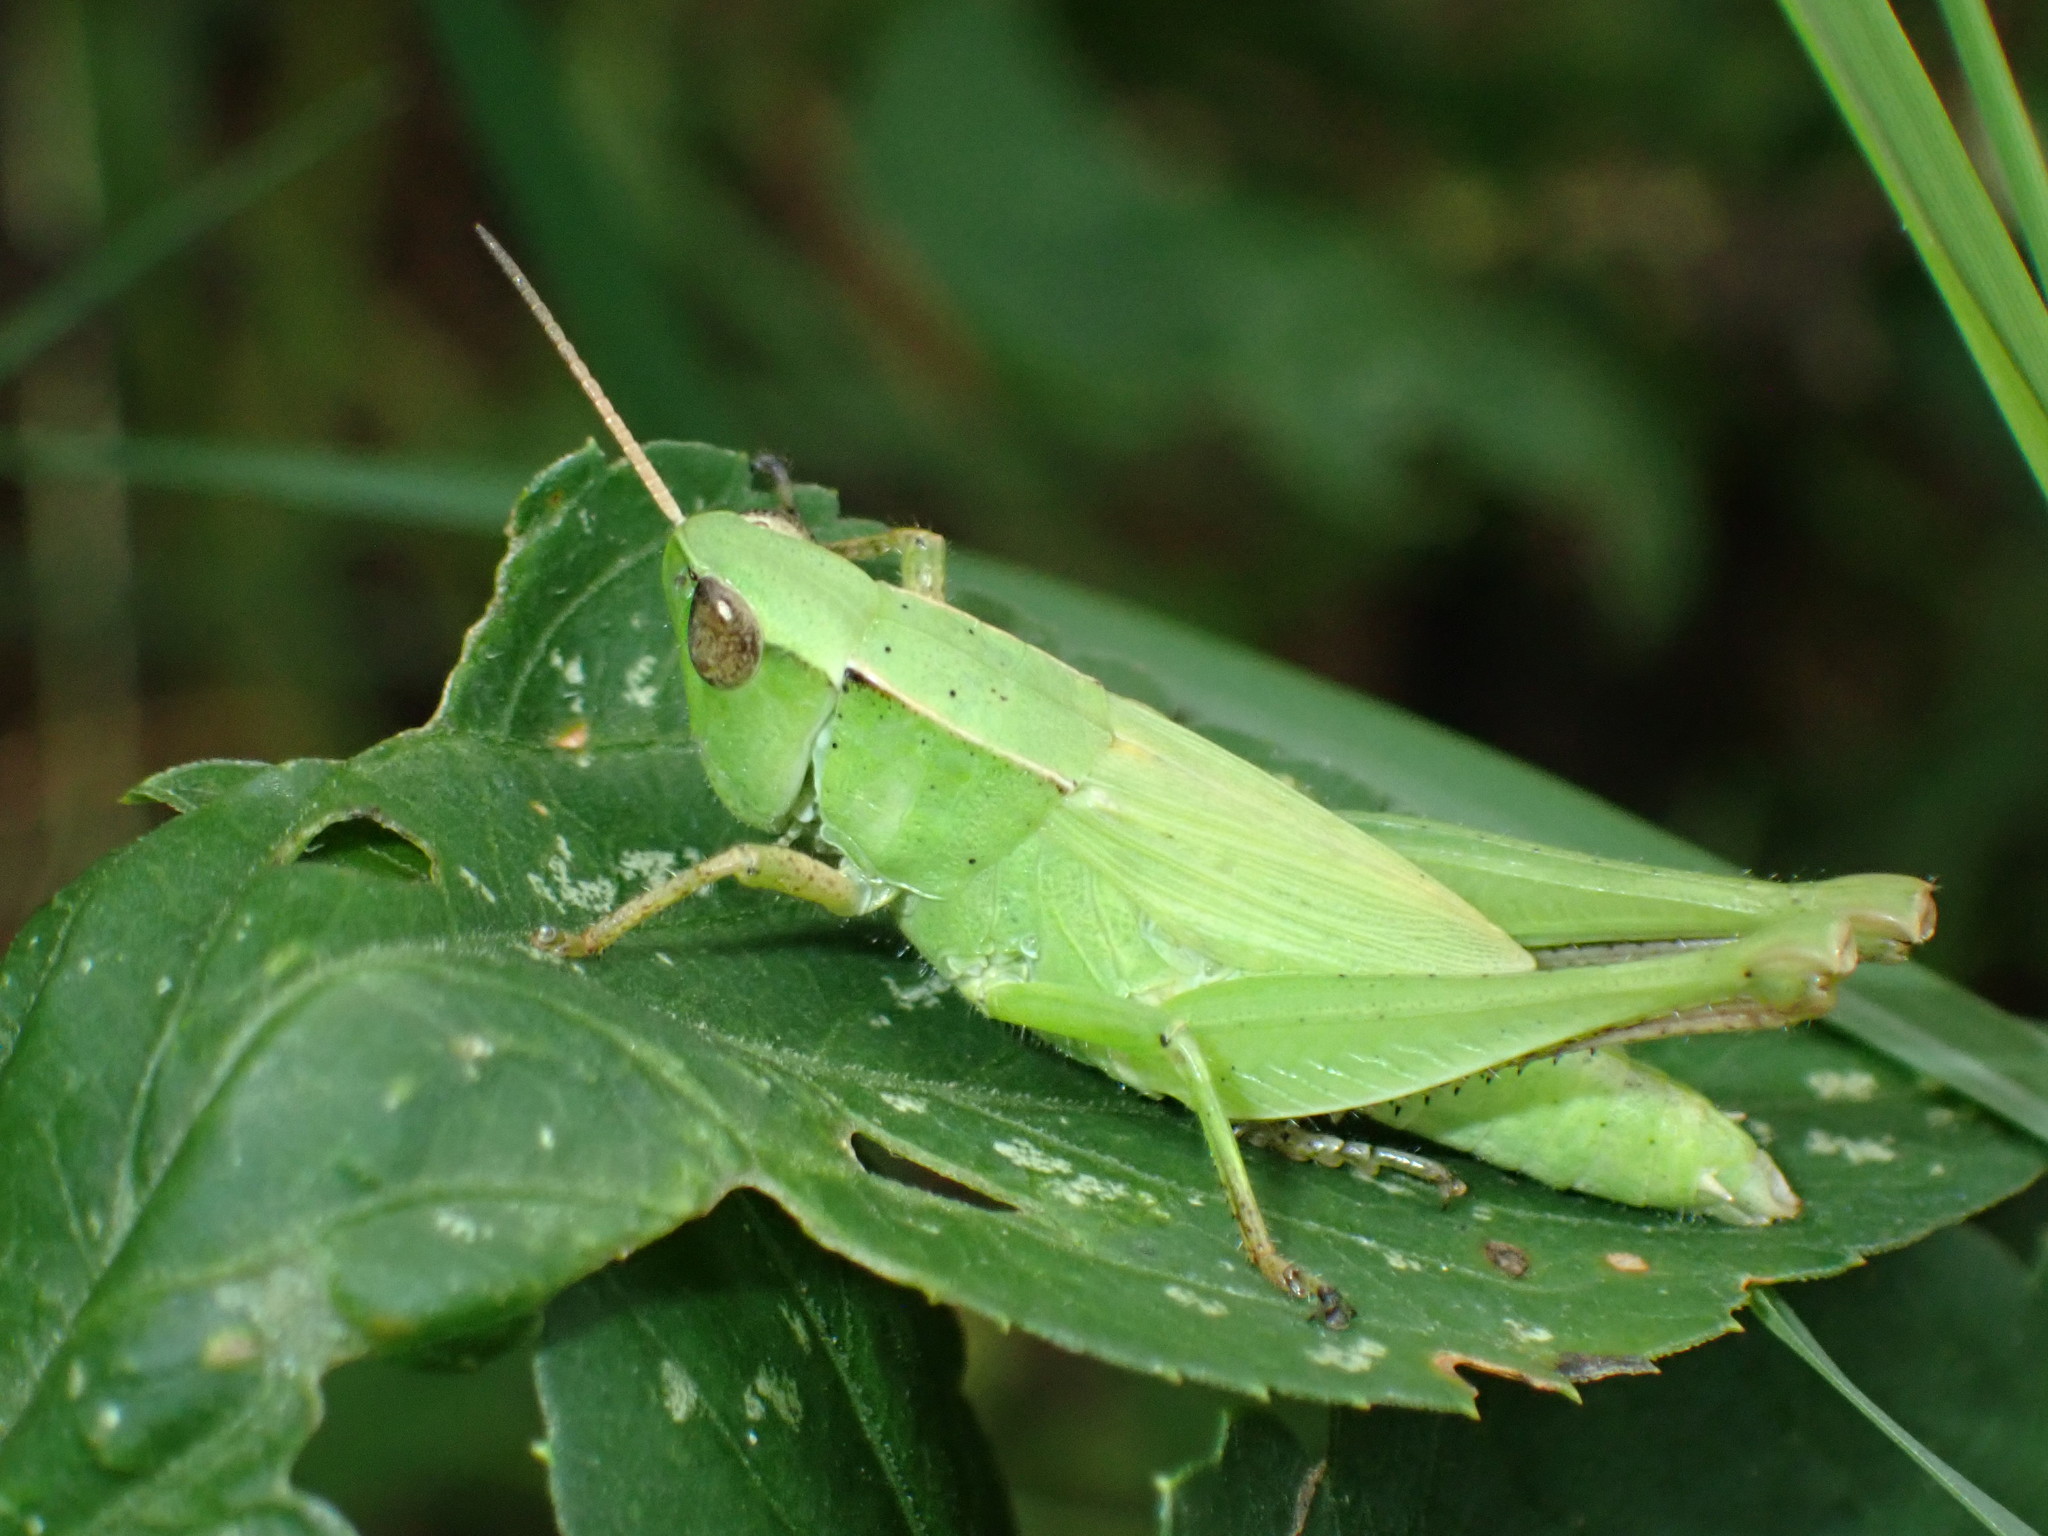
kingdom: Animalia
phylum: Arthropoda
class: Insecta
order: Orthoptera
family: Acrididae
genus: Dichromorpha
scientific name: Dichromorpha viridis
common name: Short-winged green grasshopper
